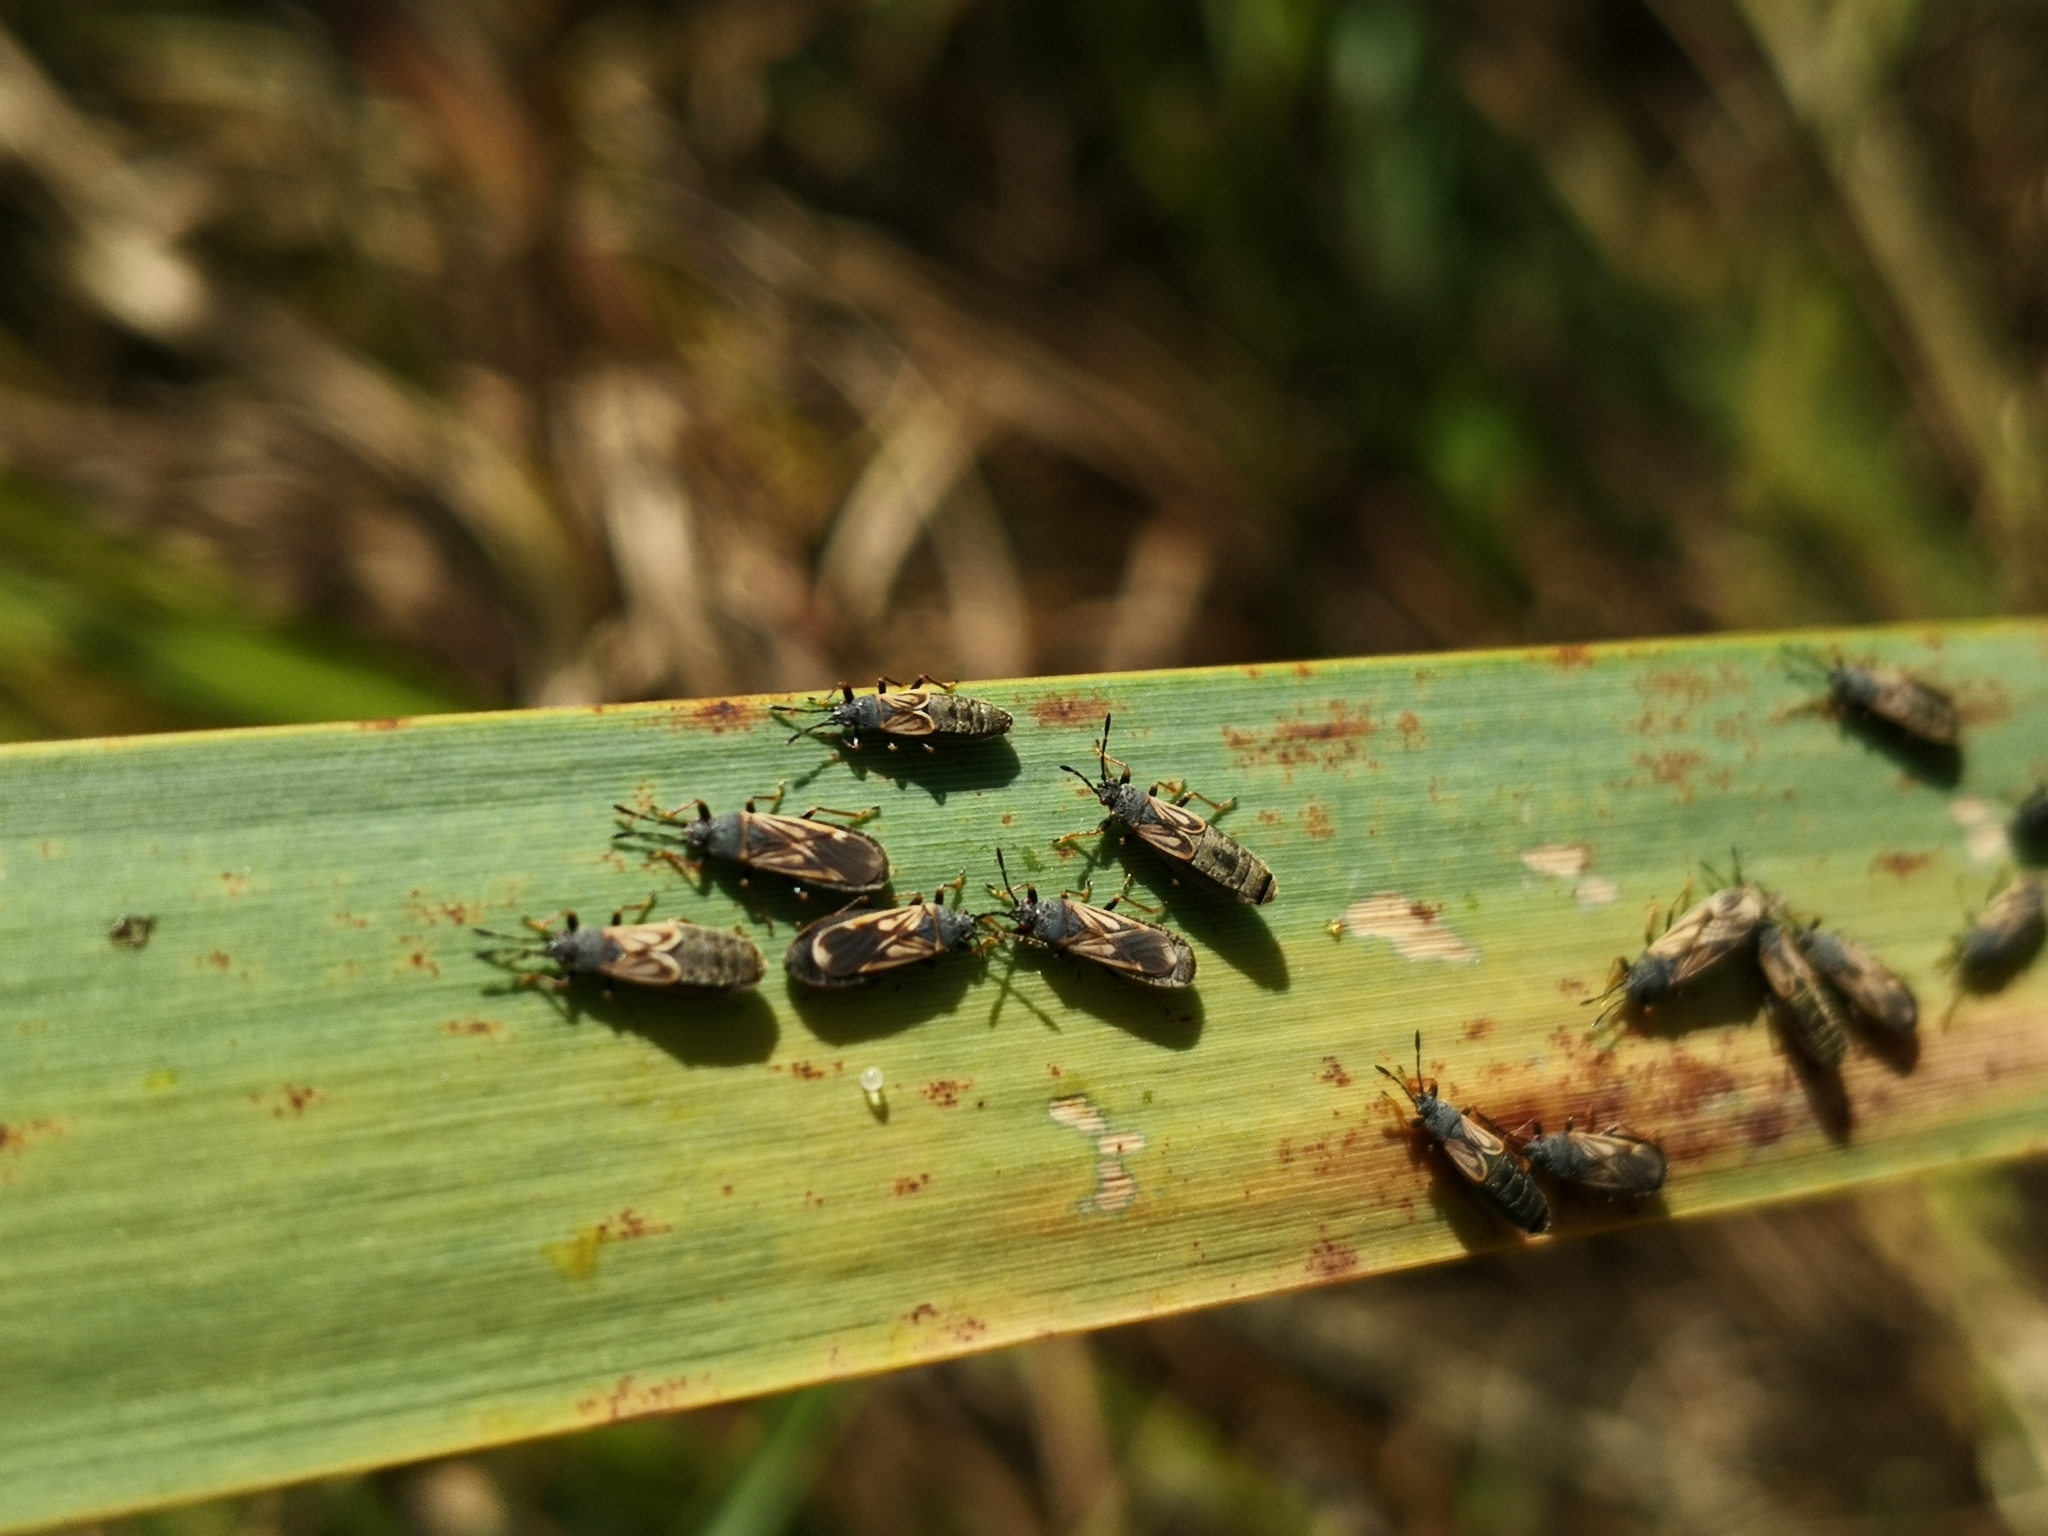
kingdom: Animalia
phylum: Arthropoda
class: Insecta
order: Hemiptera
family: Blissidae
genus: Ischnodemus
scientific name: Ischnodemus sabuleti
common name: European cinchbug
